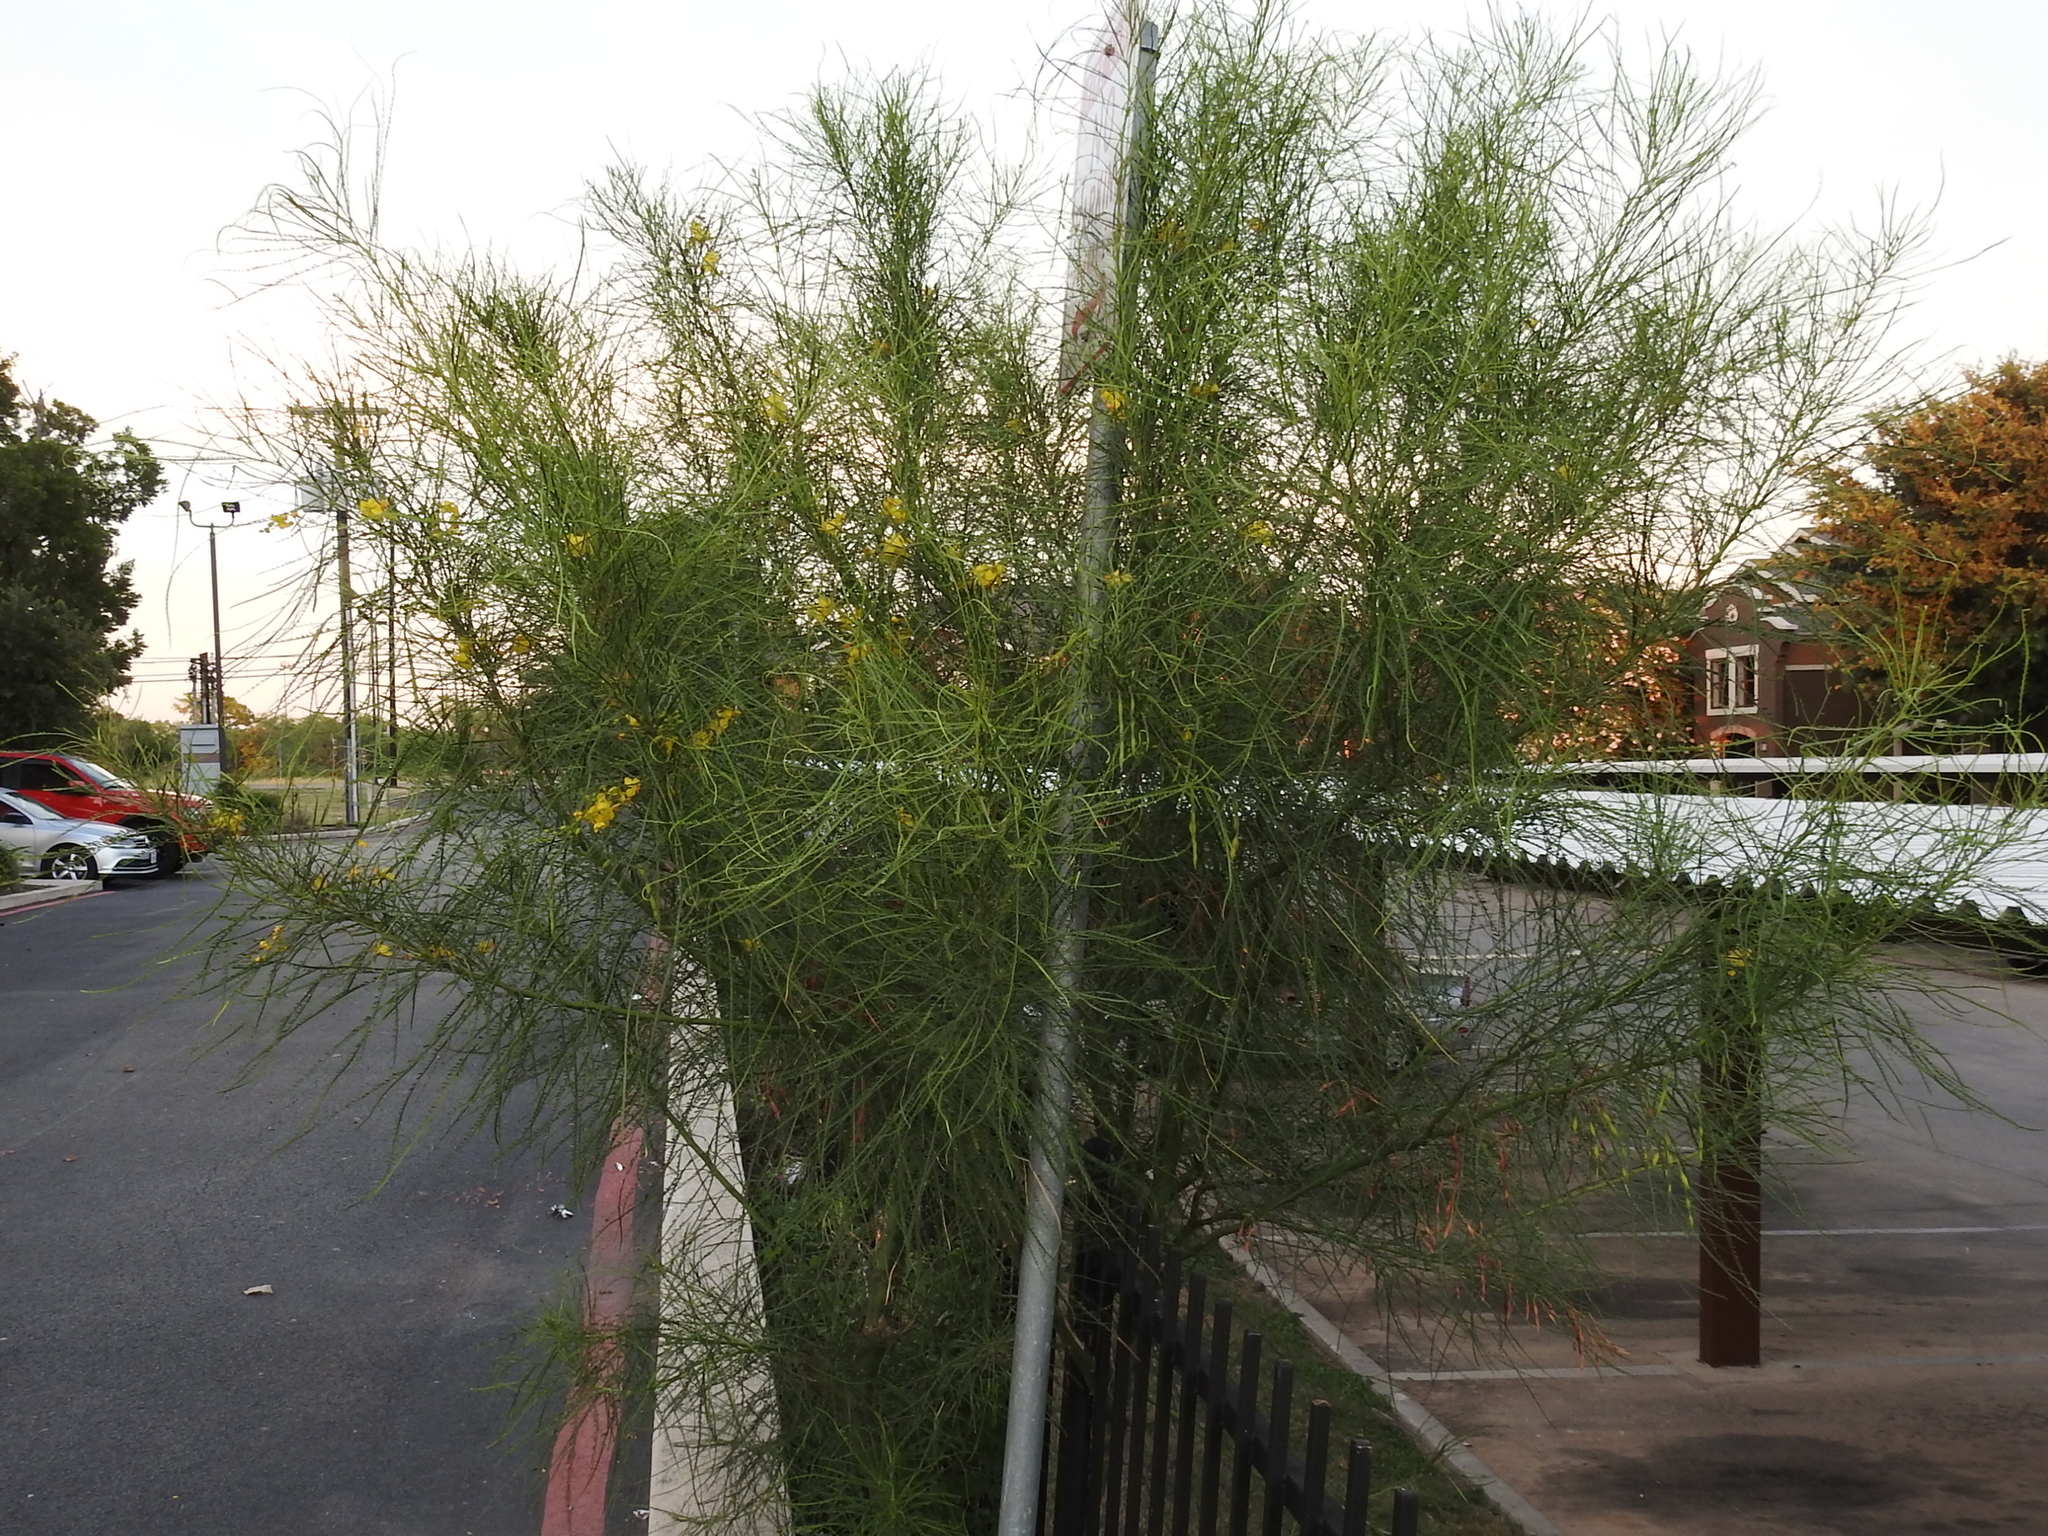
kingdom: Plantae
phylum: Tracheophyta
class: Magnoliopsida
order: Fabales
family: Fabaceae
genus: Parkinsonia
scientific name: Parkinsonia aculeata
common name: Jerusalem thorn
